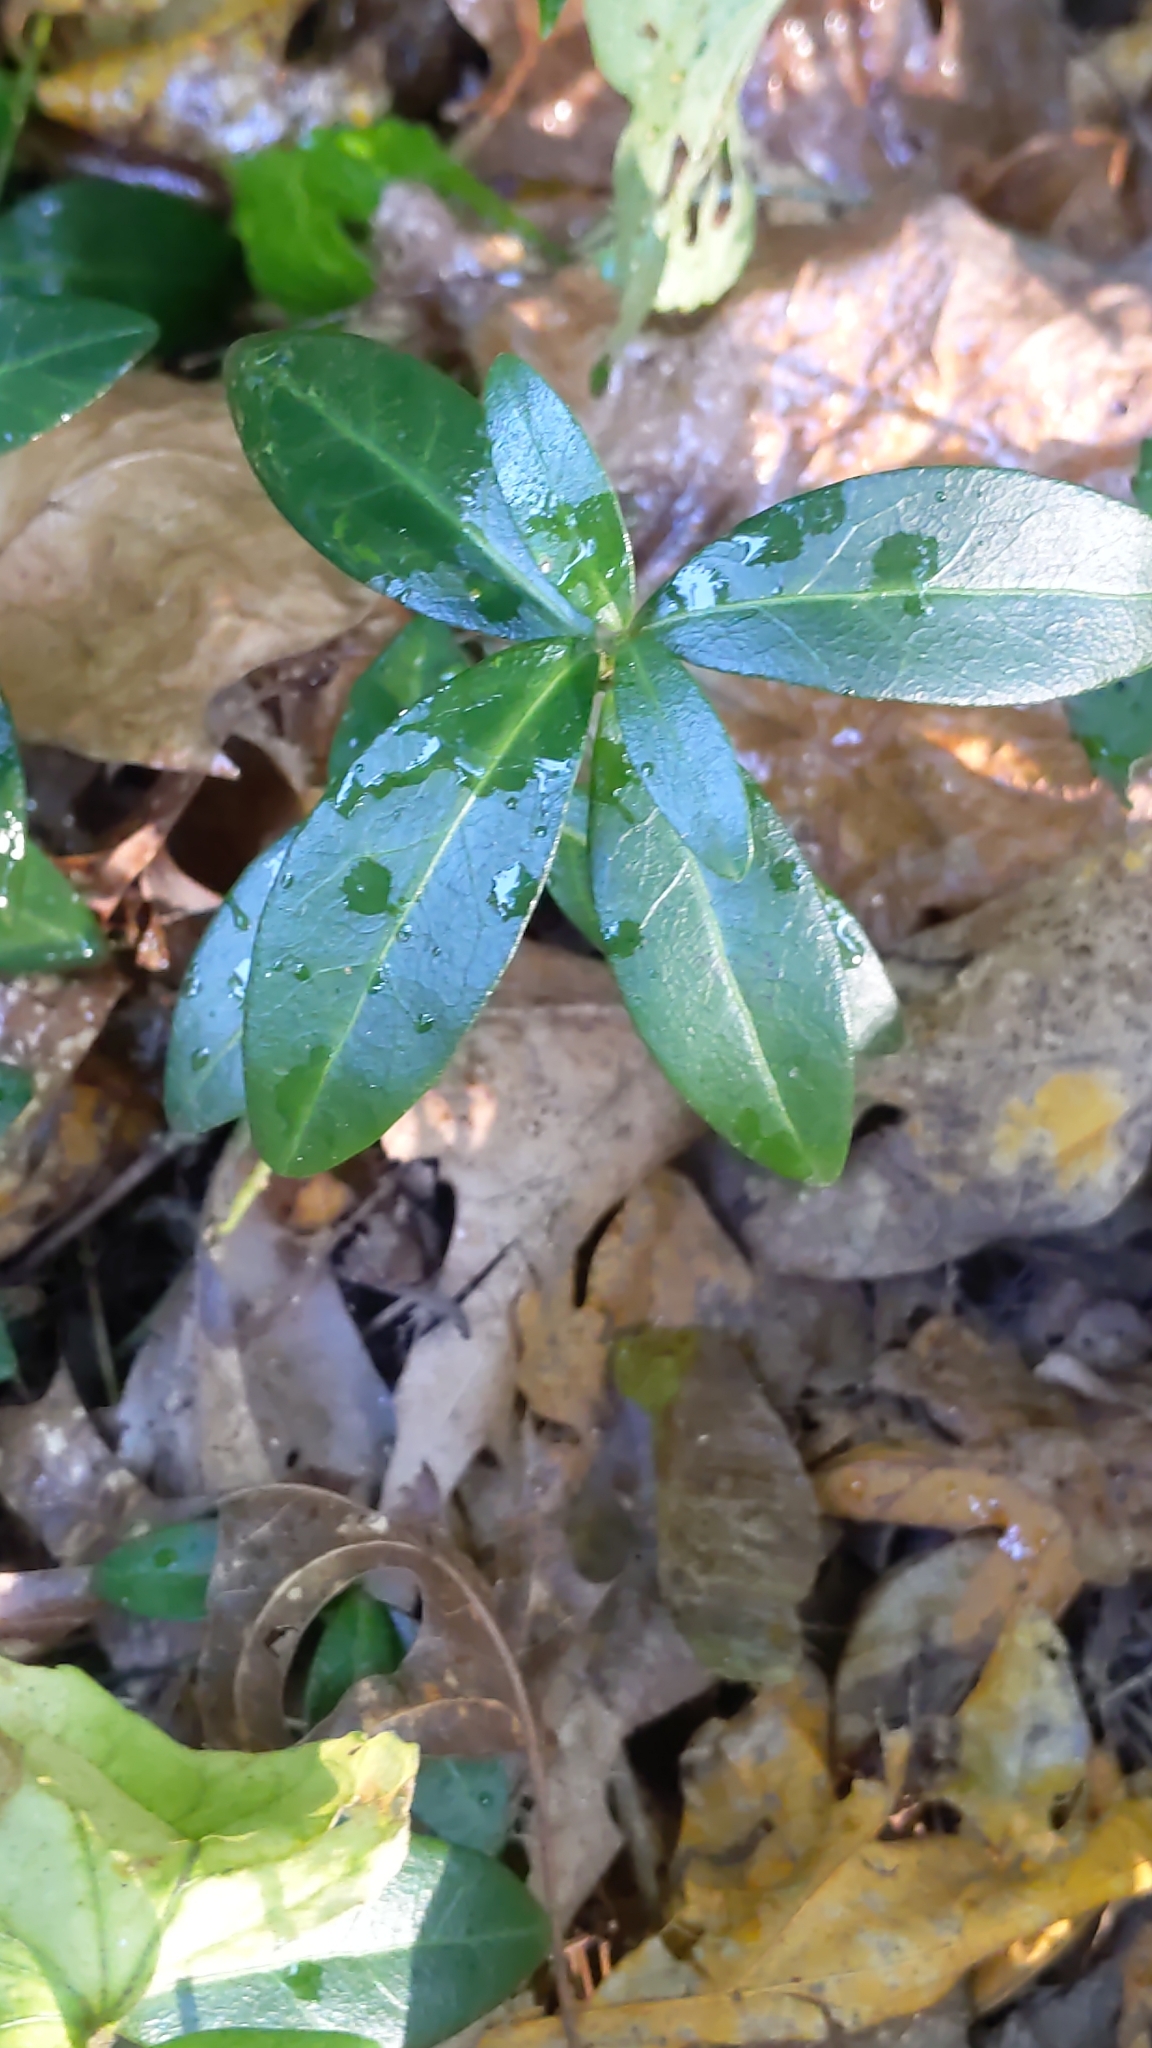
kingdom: Plantae
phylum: Tracheophyta
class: Magnoliopsida
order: Gentianales
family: Apocynaceae
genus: Vinca
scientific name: Vinca minor
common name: Lesser periwinkle
